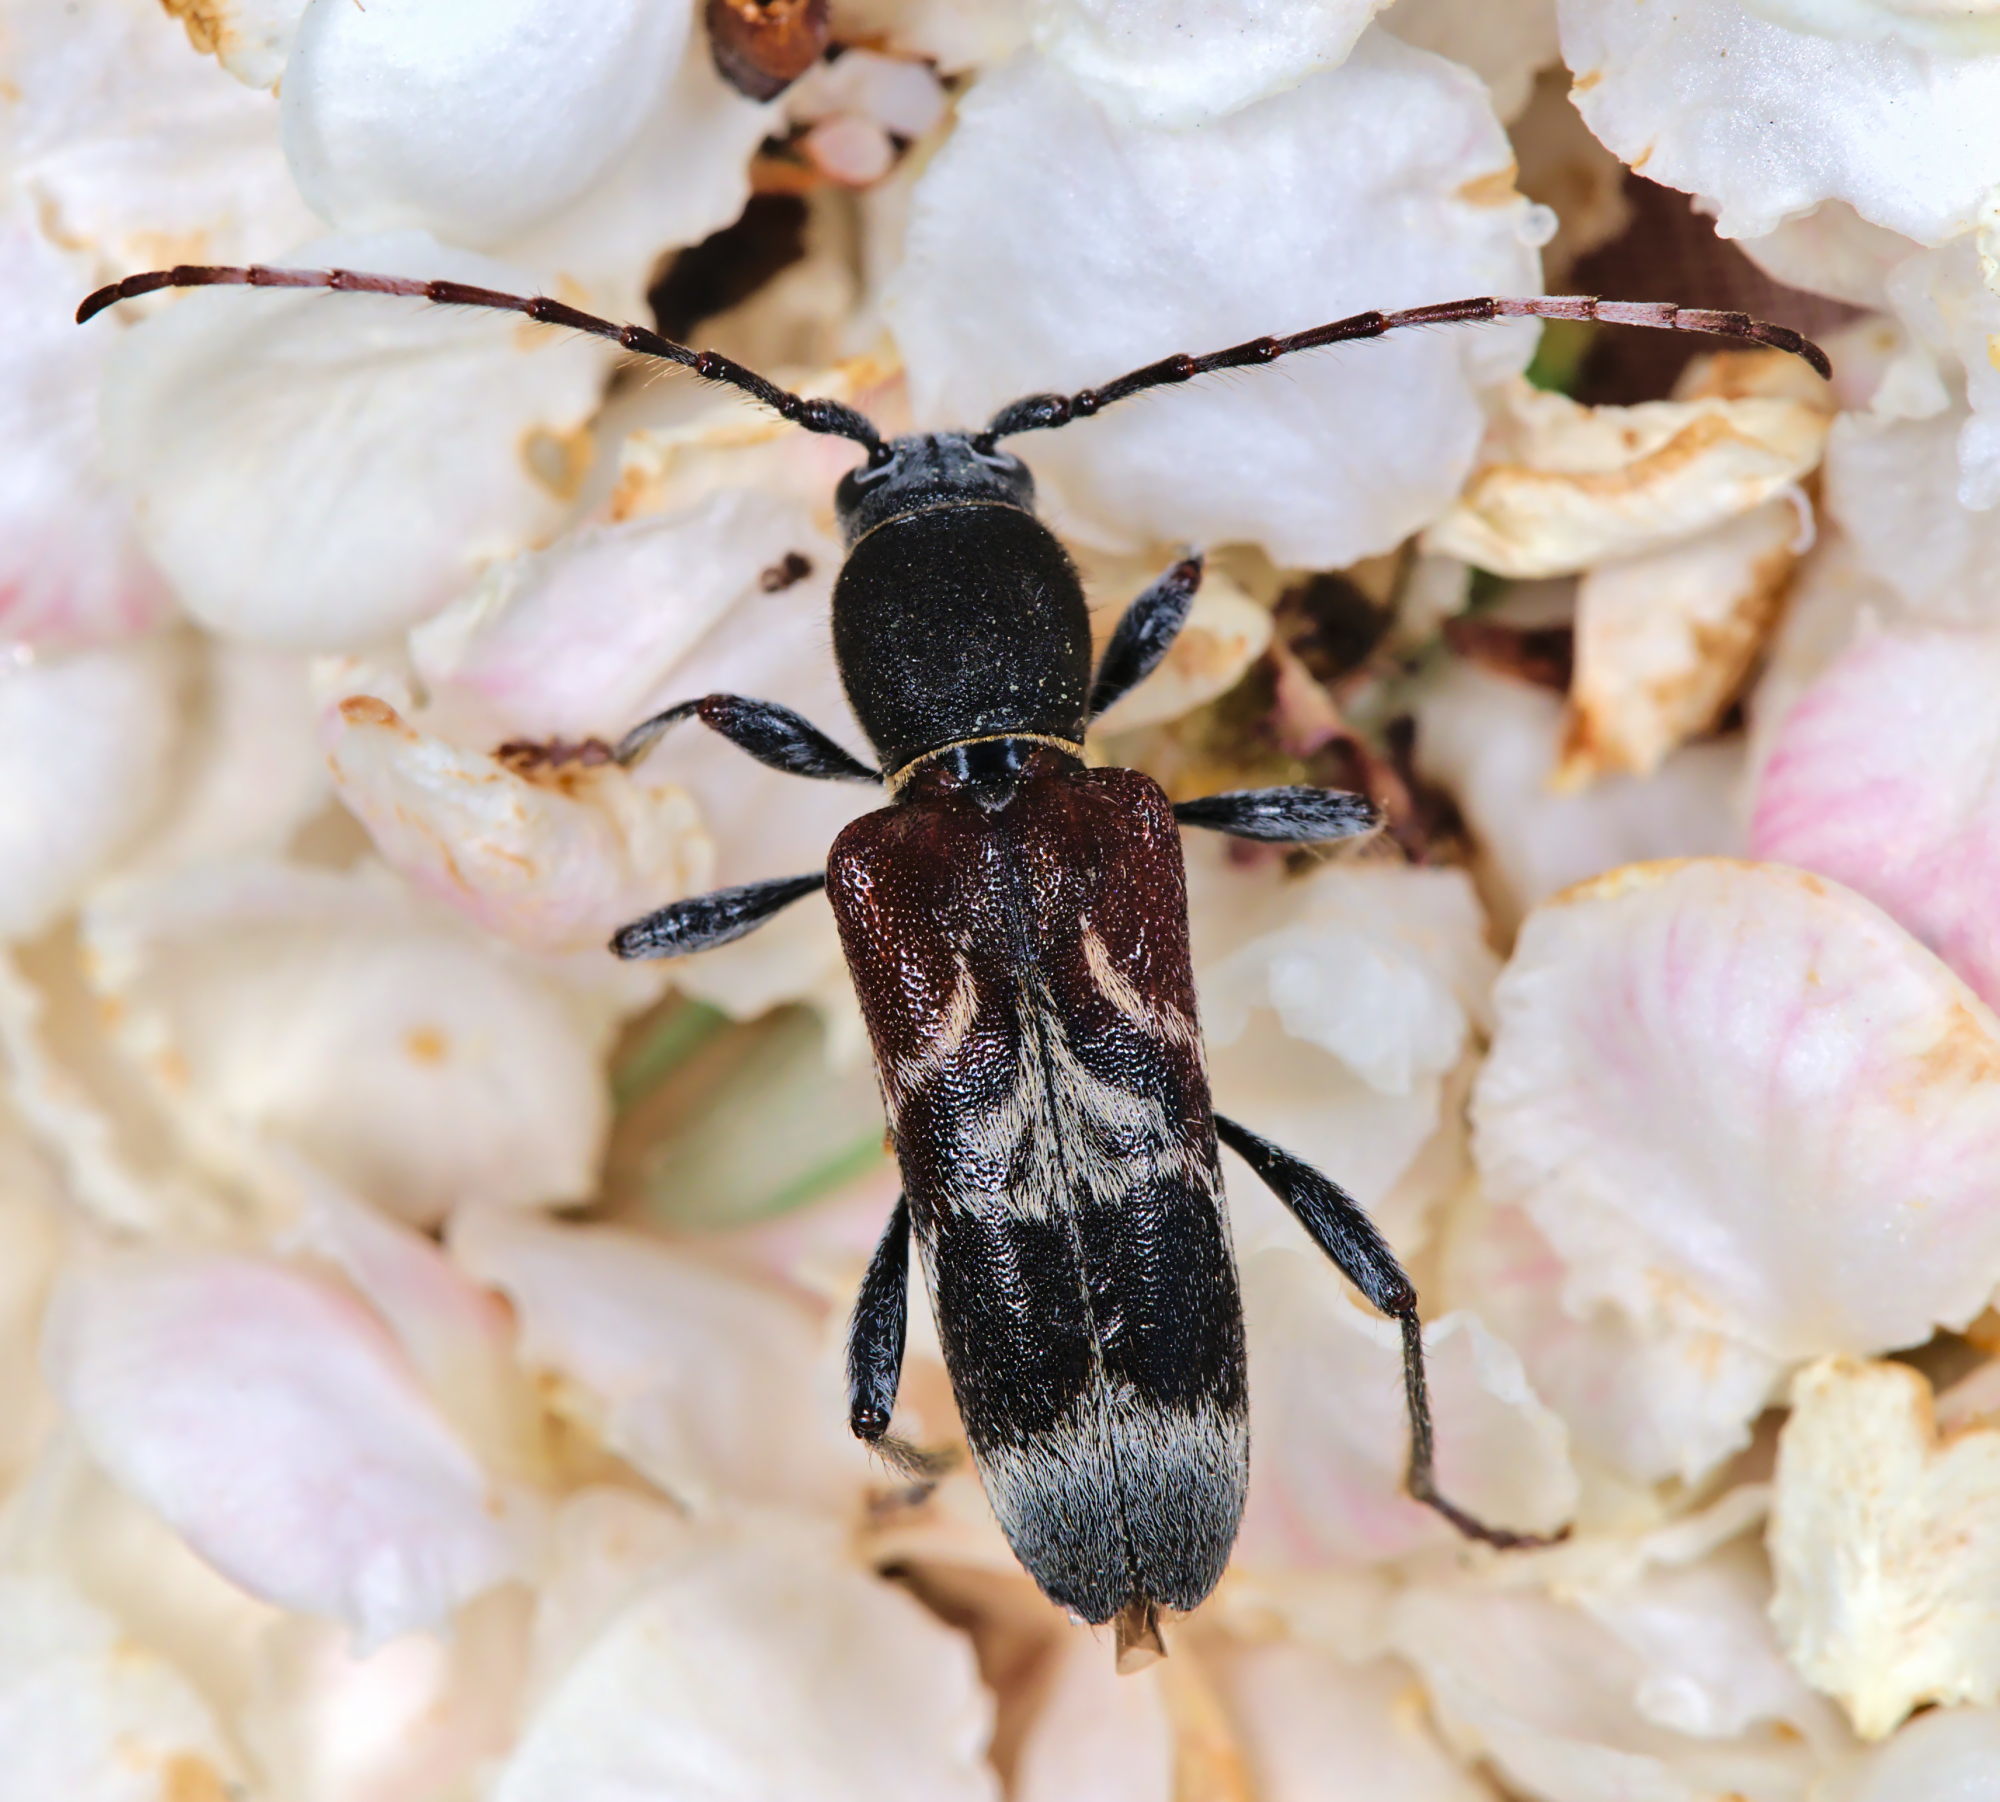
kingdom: Animalia
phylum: Arthropoda
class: Insecta
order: Coleoptera
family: Cerambycidae
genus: Anaglyptus
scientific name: Anaglyptus mysticus
